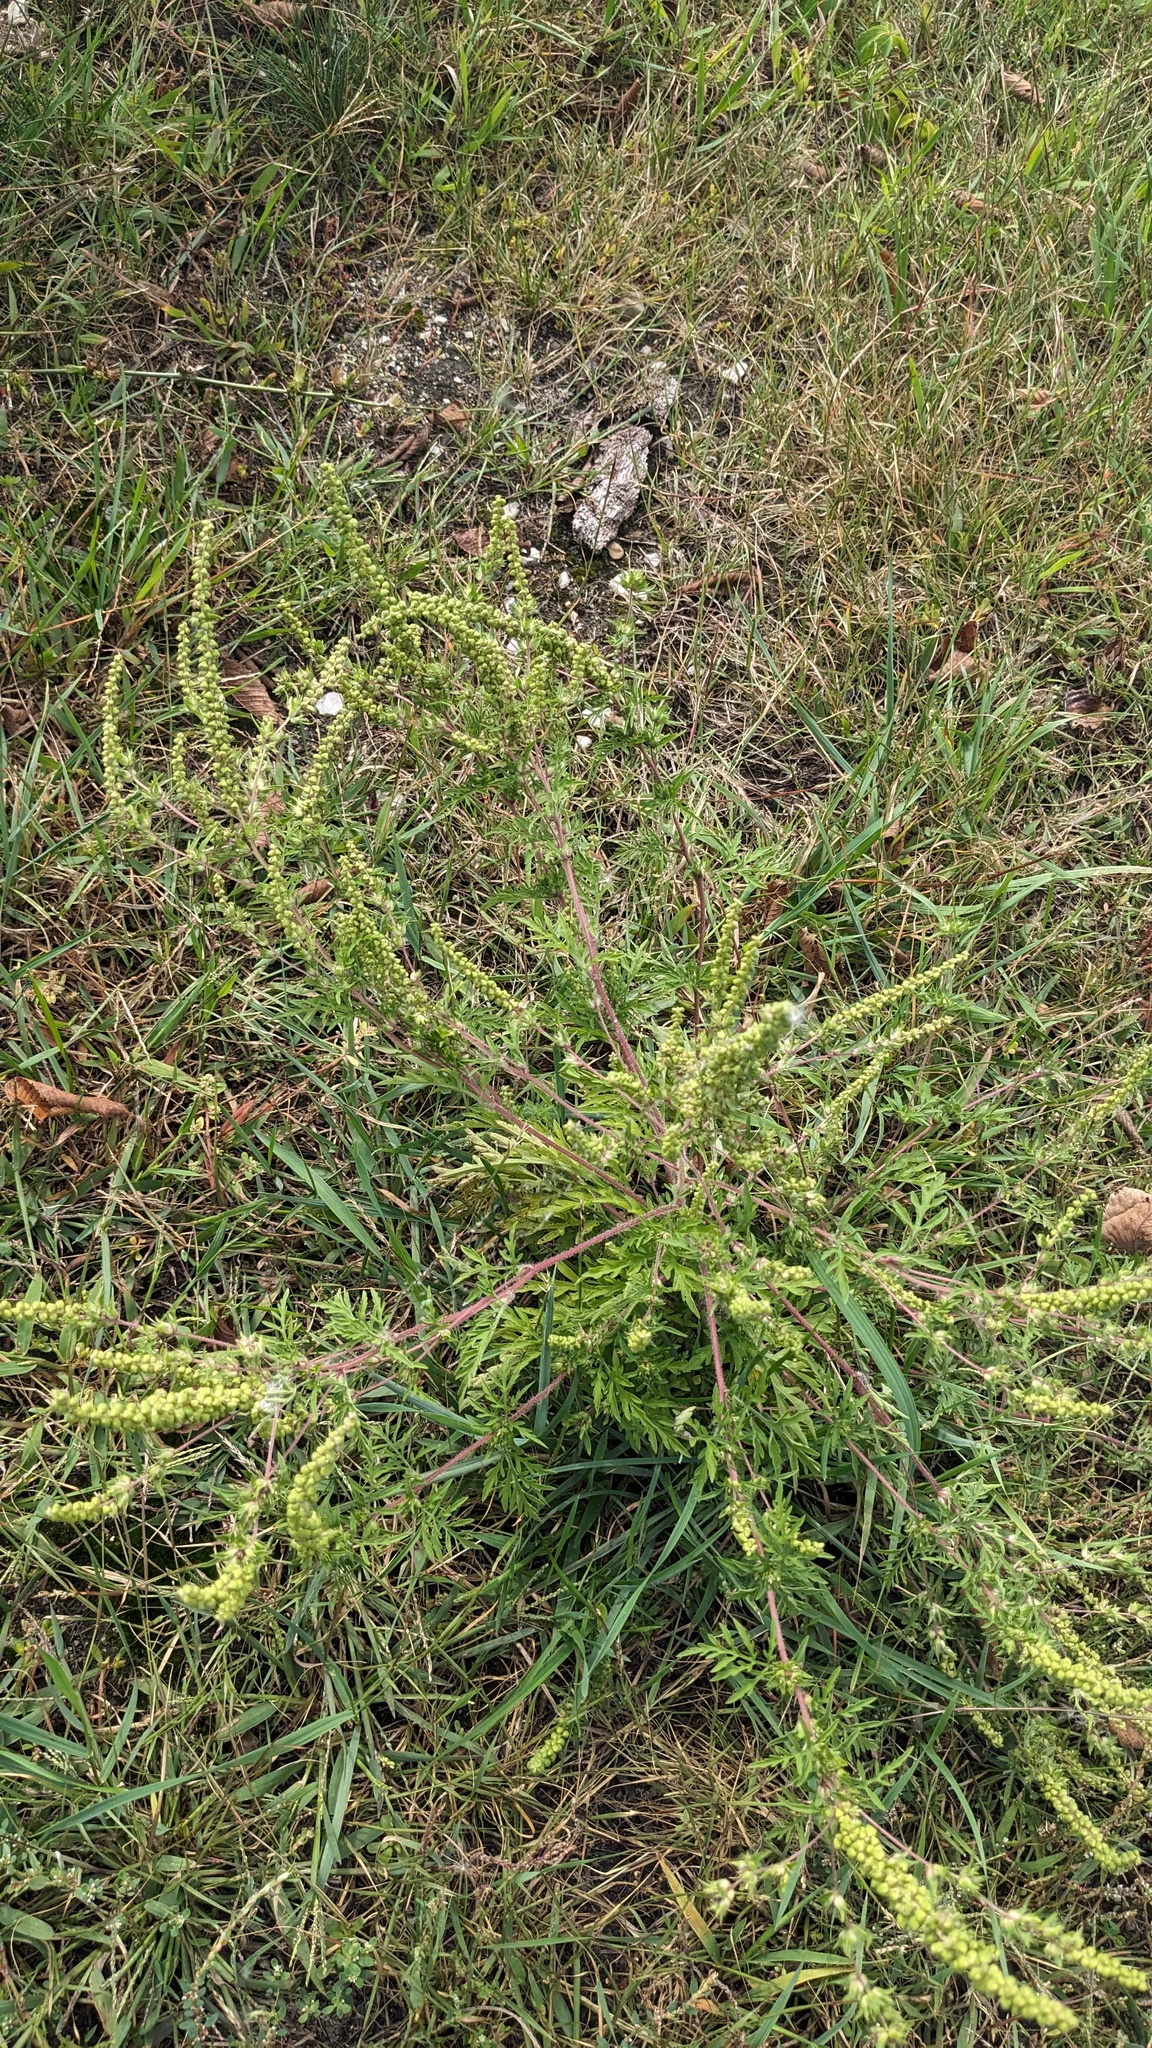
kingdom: Plantae
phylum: Tracheophyta
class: Magnoliopsida
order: Asterales
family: Asteraceae
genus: Ambrosia
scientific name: Ambrosia artemisiifolia
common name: Annual ragweed
